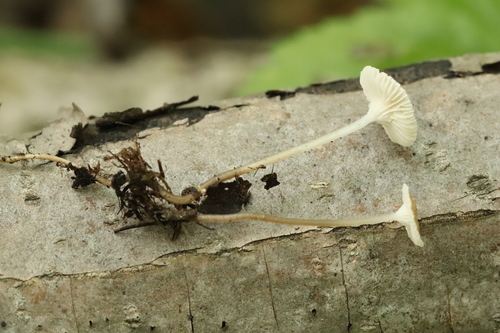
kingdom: Fungi
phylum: Basidiomycota
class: Agaricomycetes
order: Agaricales
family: Mycenaceae
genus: Roridomyces
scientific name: Roridomyces roridus
